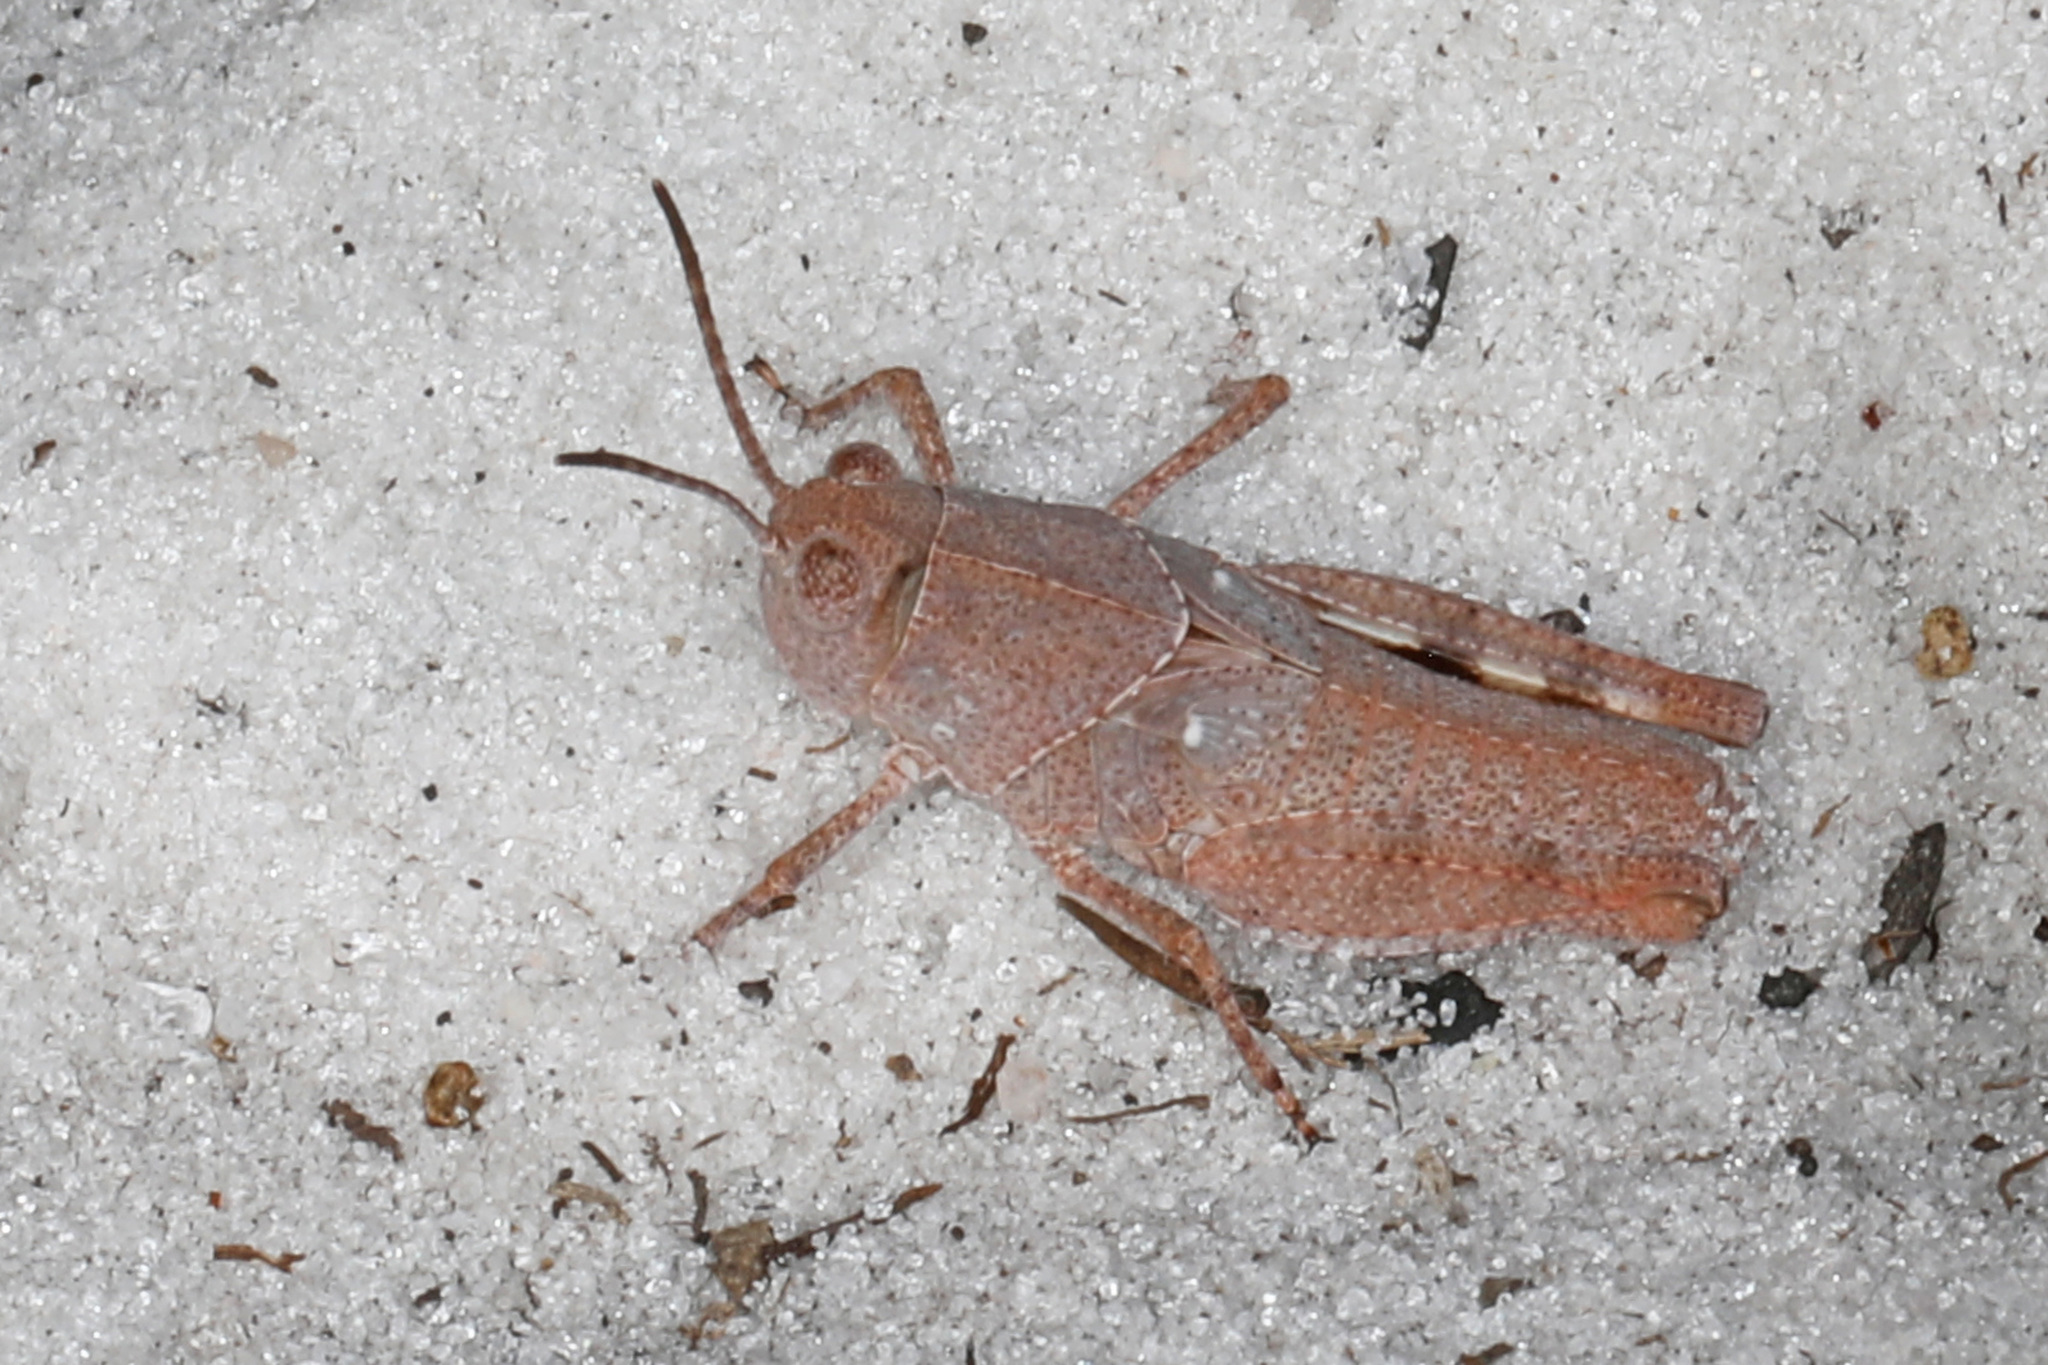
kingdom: Animalia
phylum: Arthropoda
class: Insecta
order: Orthoptera
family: Acrididae
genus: Spharagemon
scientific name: Spharagemon marmoratum
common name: Marbled grasshopper
